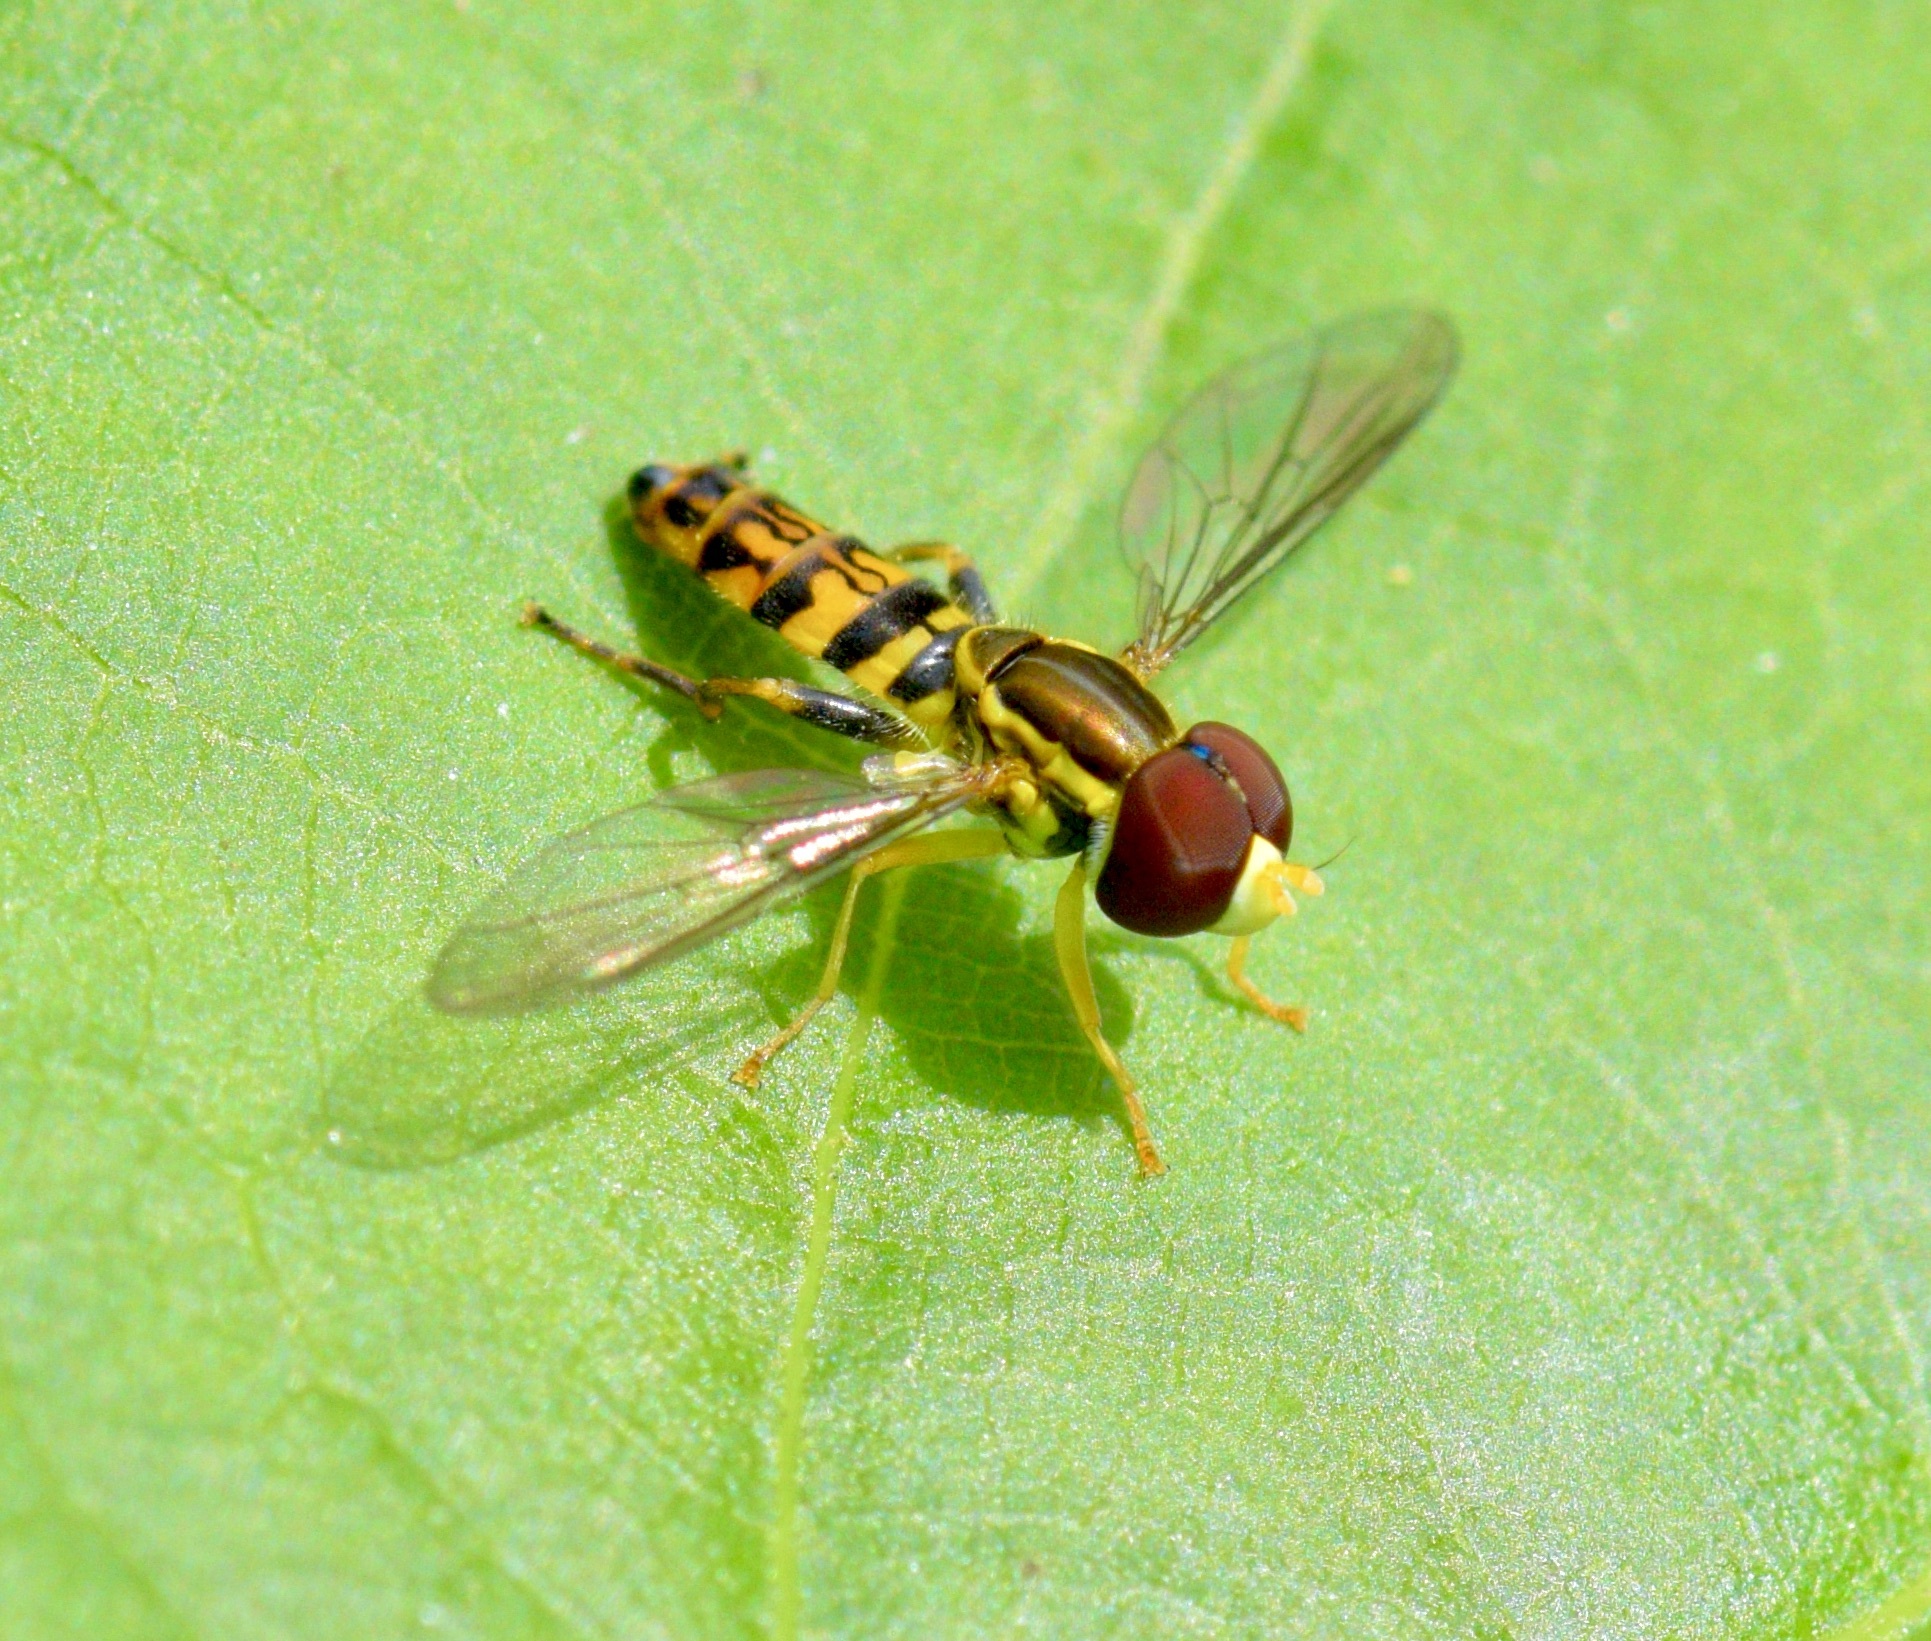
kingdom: Animalia
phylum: Arthropoda
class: Insecta
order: Diptera
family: Syrphidae
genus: Toxomerus
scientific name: Toxomerus geminatus
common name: Eastern calligrapher
